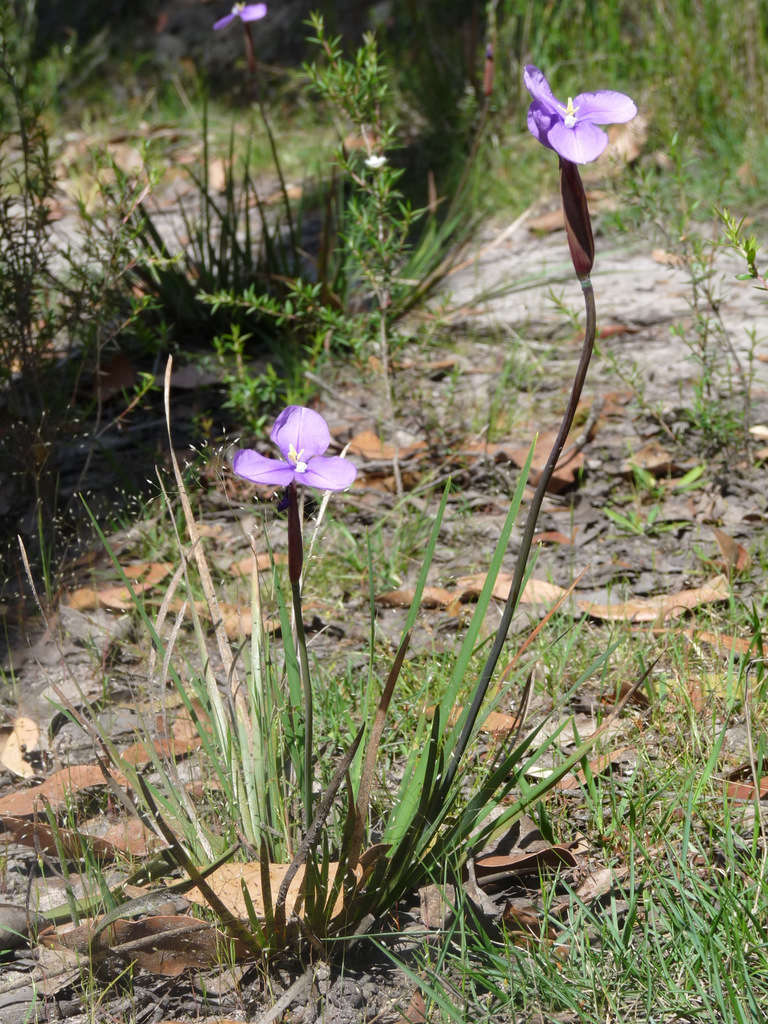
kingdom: Plantae
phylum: Tracheophyta
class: Liliopsida
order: Asparagales
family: Iridaceae
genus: Patersonia
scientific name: Patersonia occidentalis
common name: Long purple-flag
